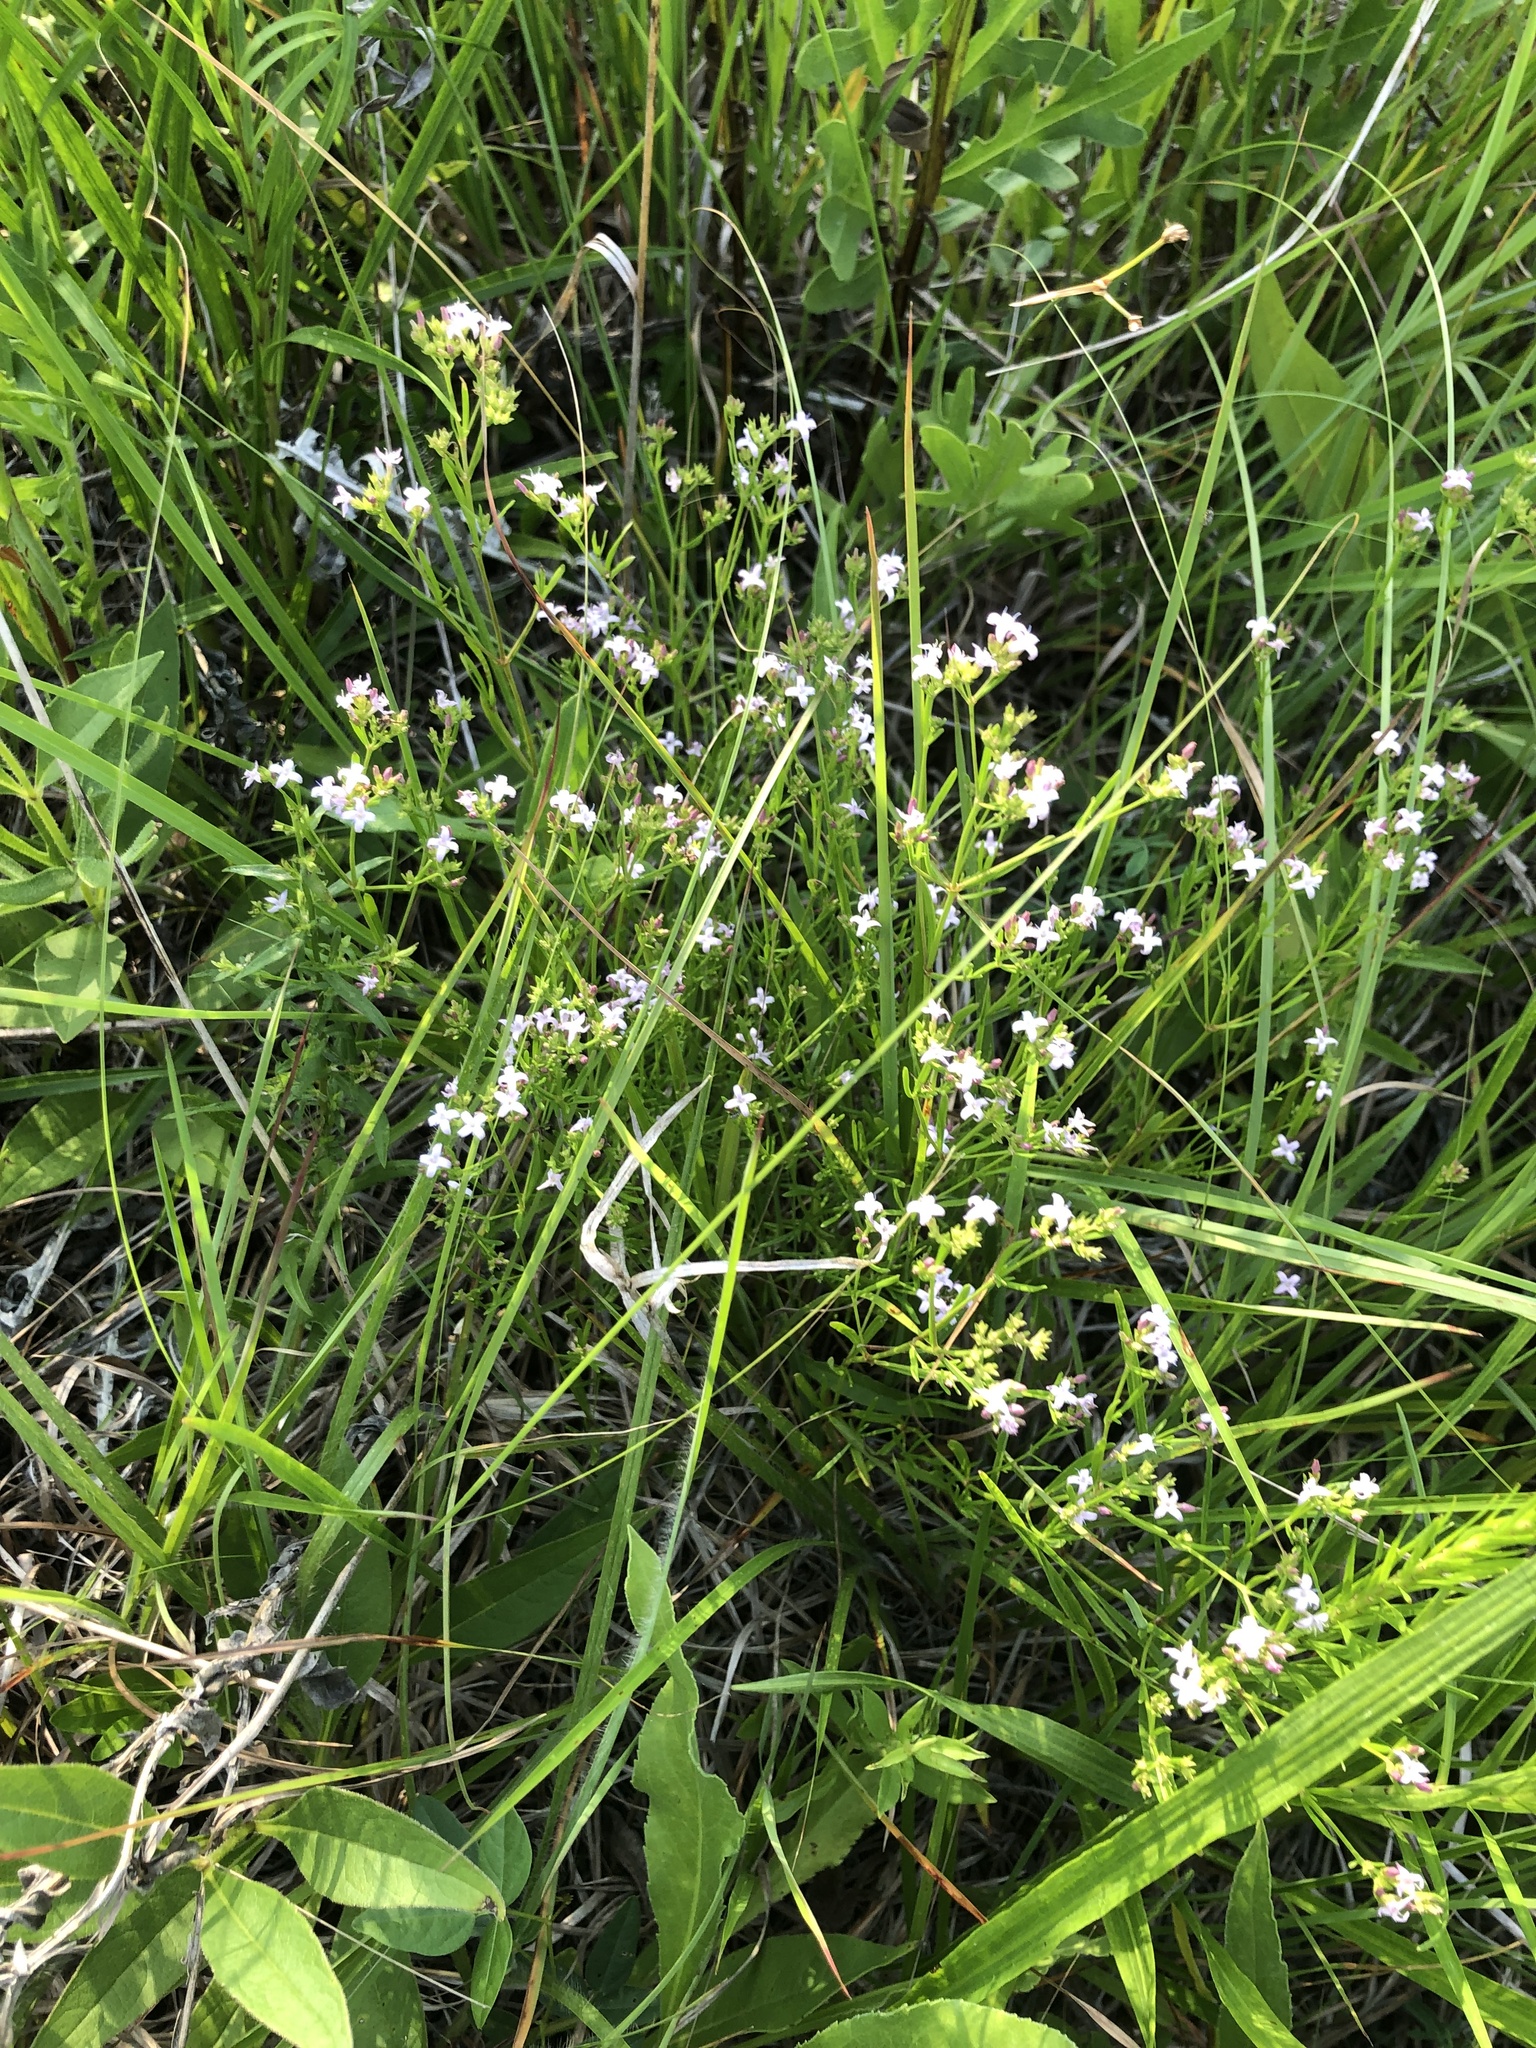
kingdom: Plantae
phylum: Tracheophyta
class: Magnoliopsida
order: Gentianales
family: Rubiaceae
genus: Stenaria
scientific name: Stenaria nigricans
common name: Diamondflowers
